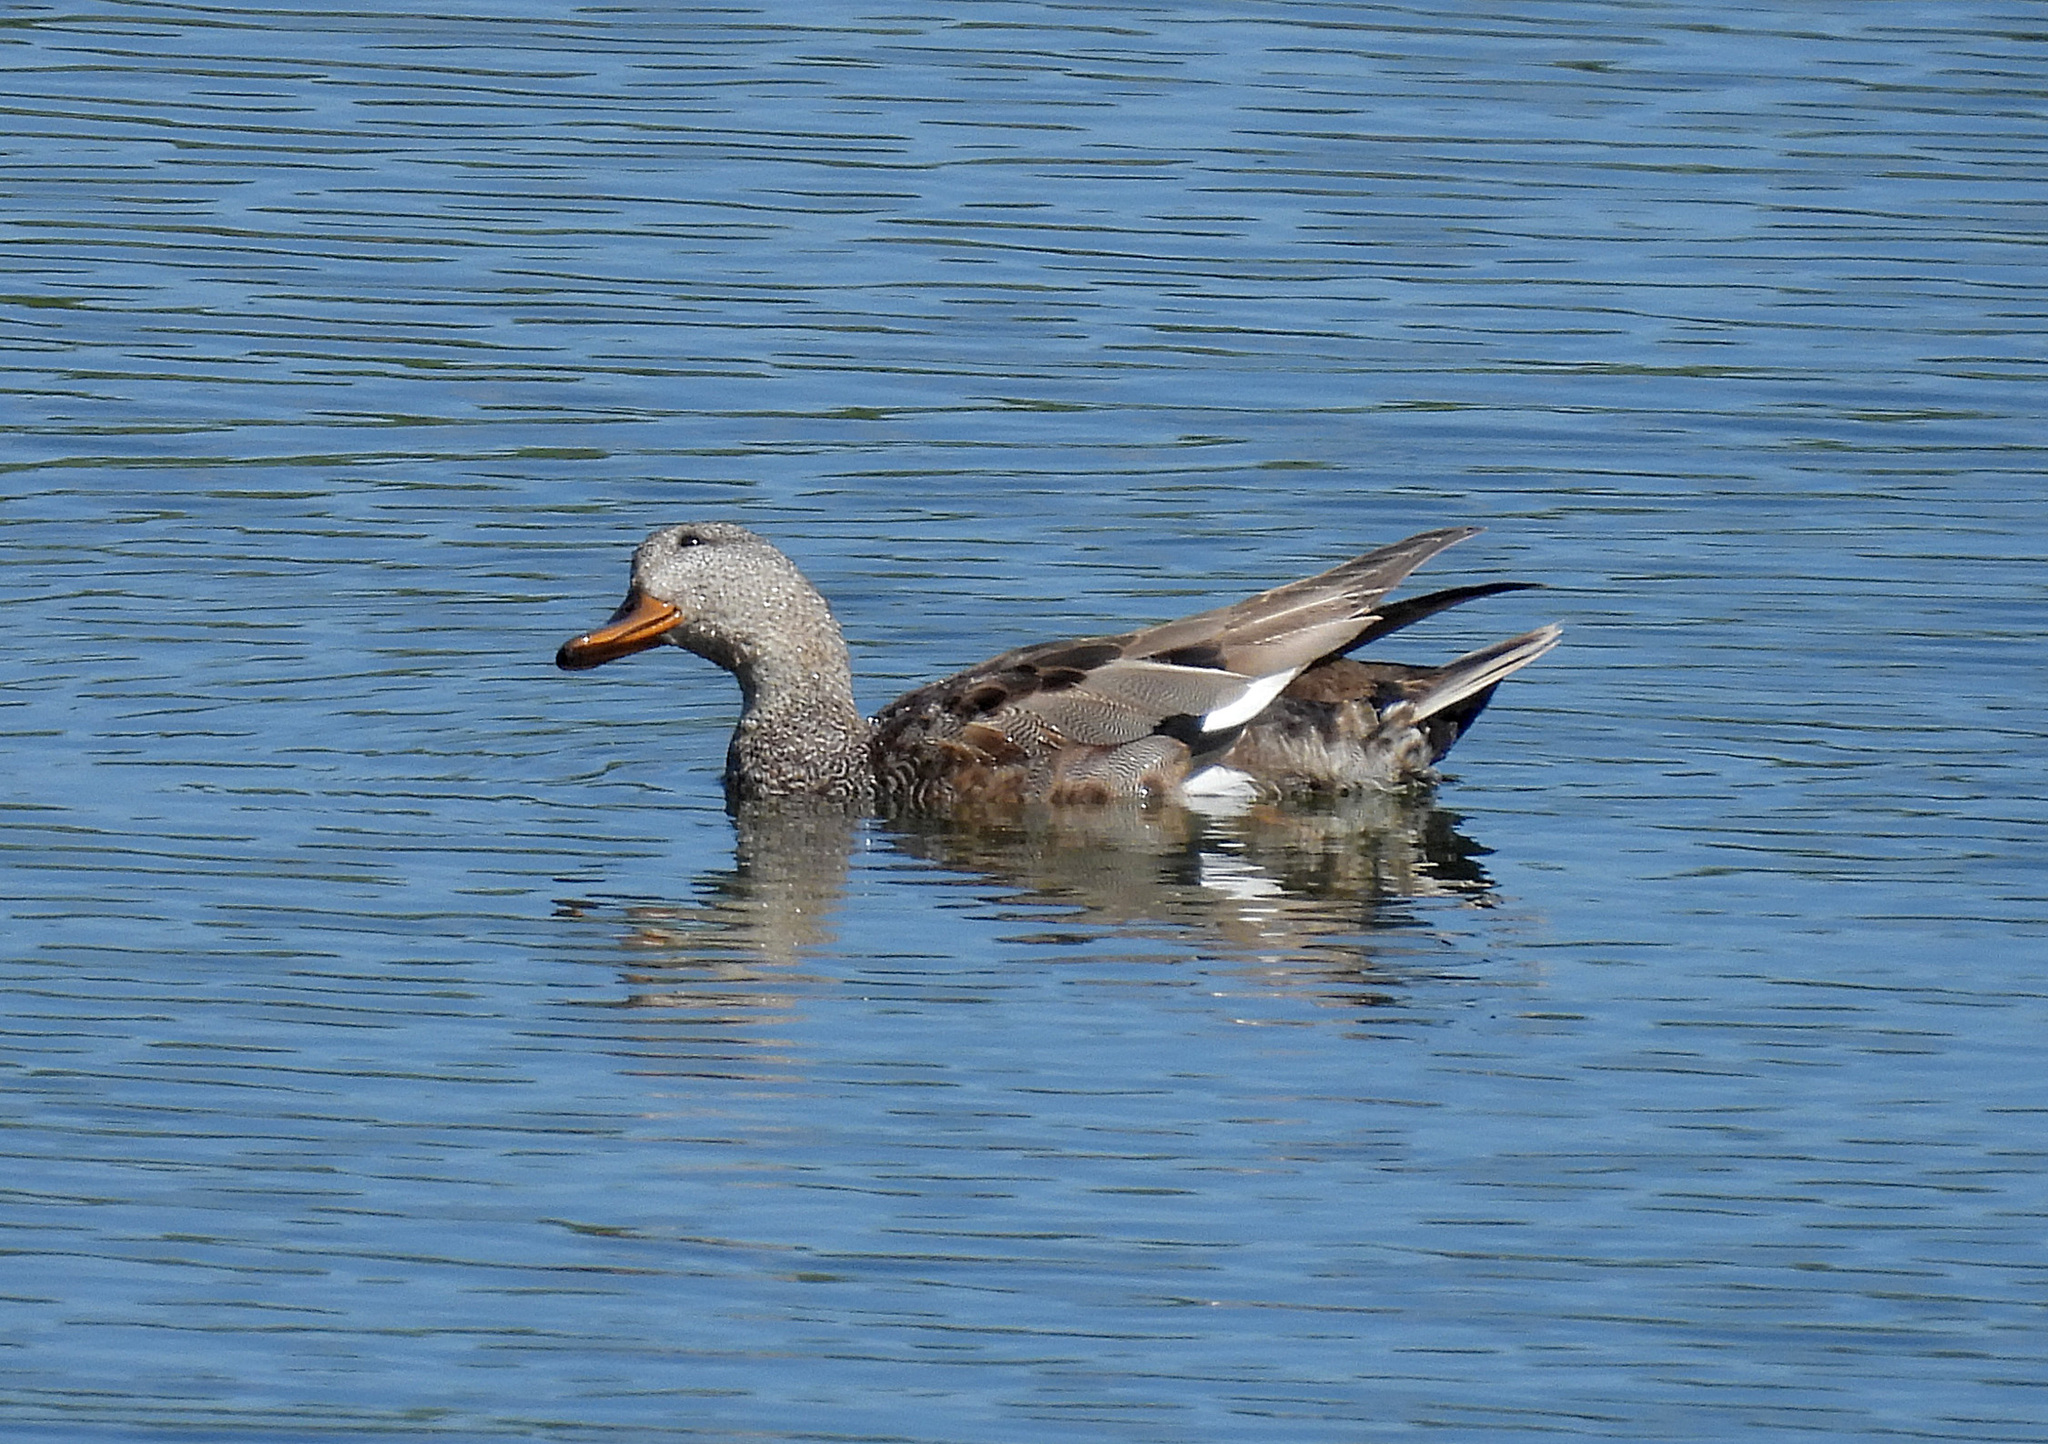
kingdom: Animalia
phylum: Chordata
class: Aves
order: Anseriformes
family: Anatidae
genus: Mareca
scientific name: Mareca strepera
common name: Gadwall
